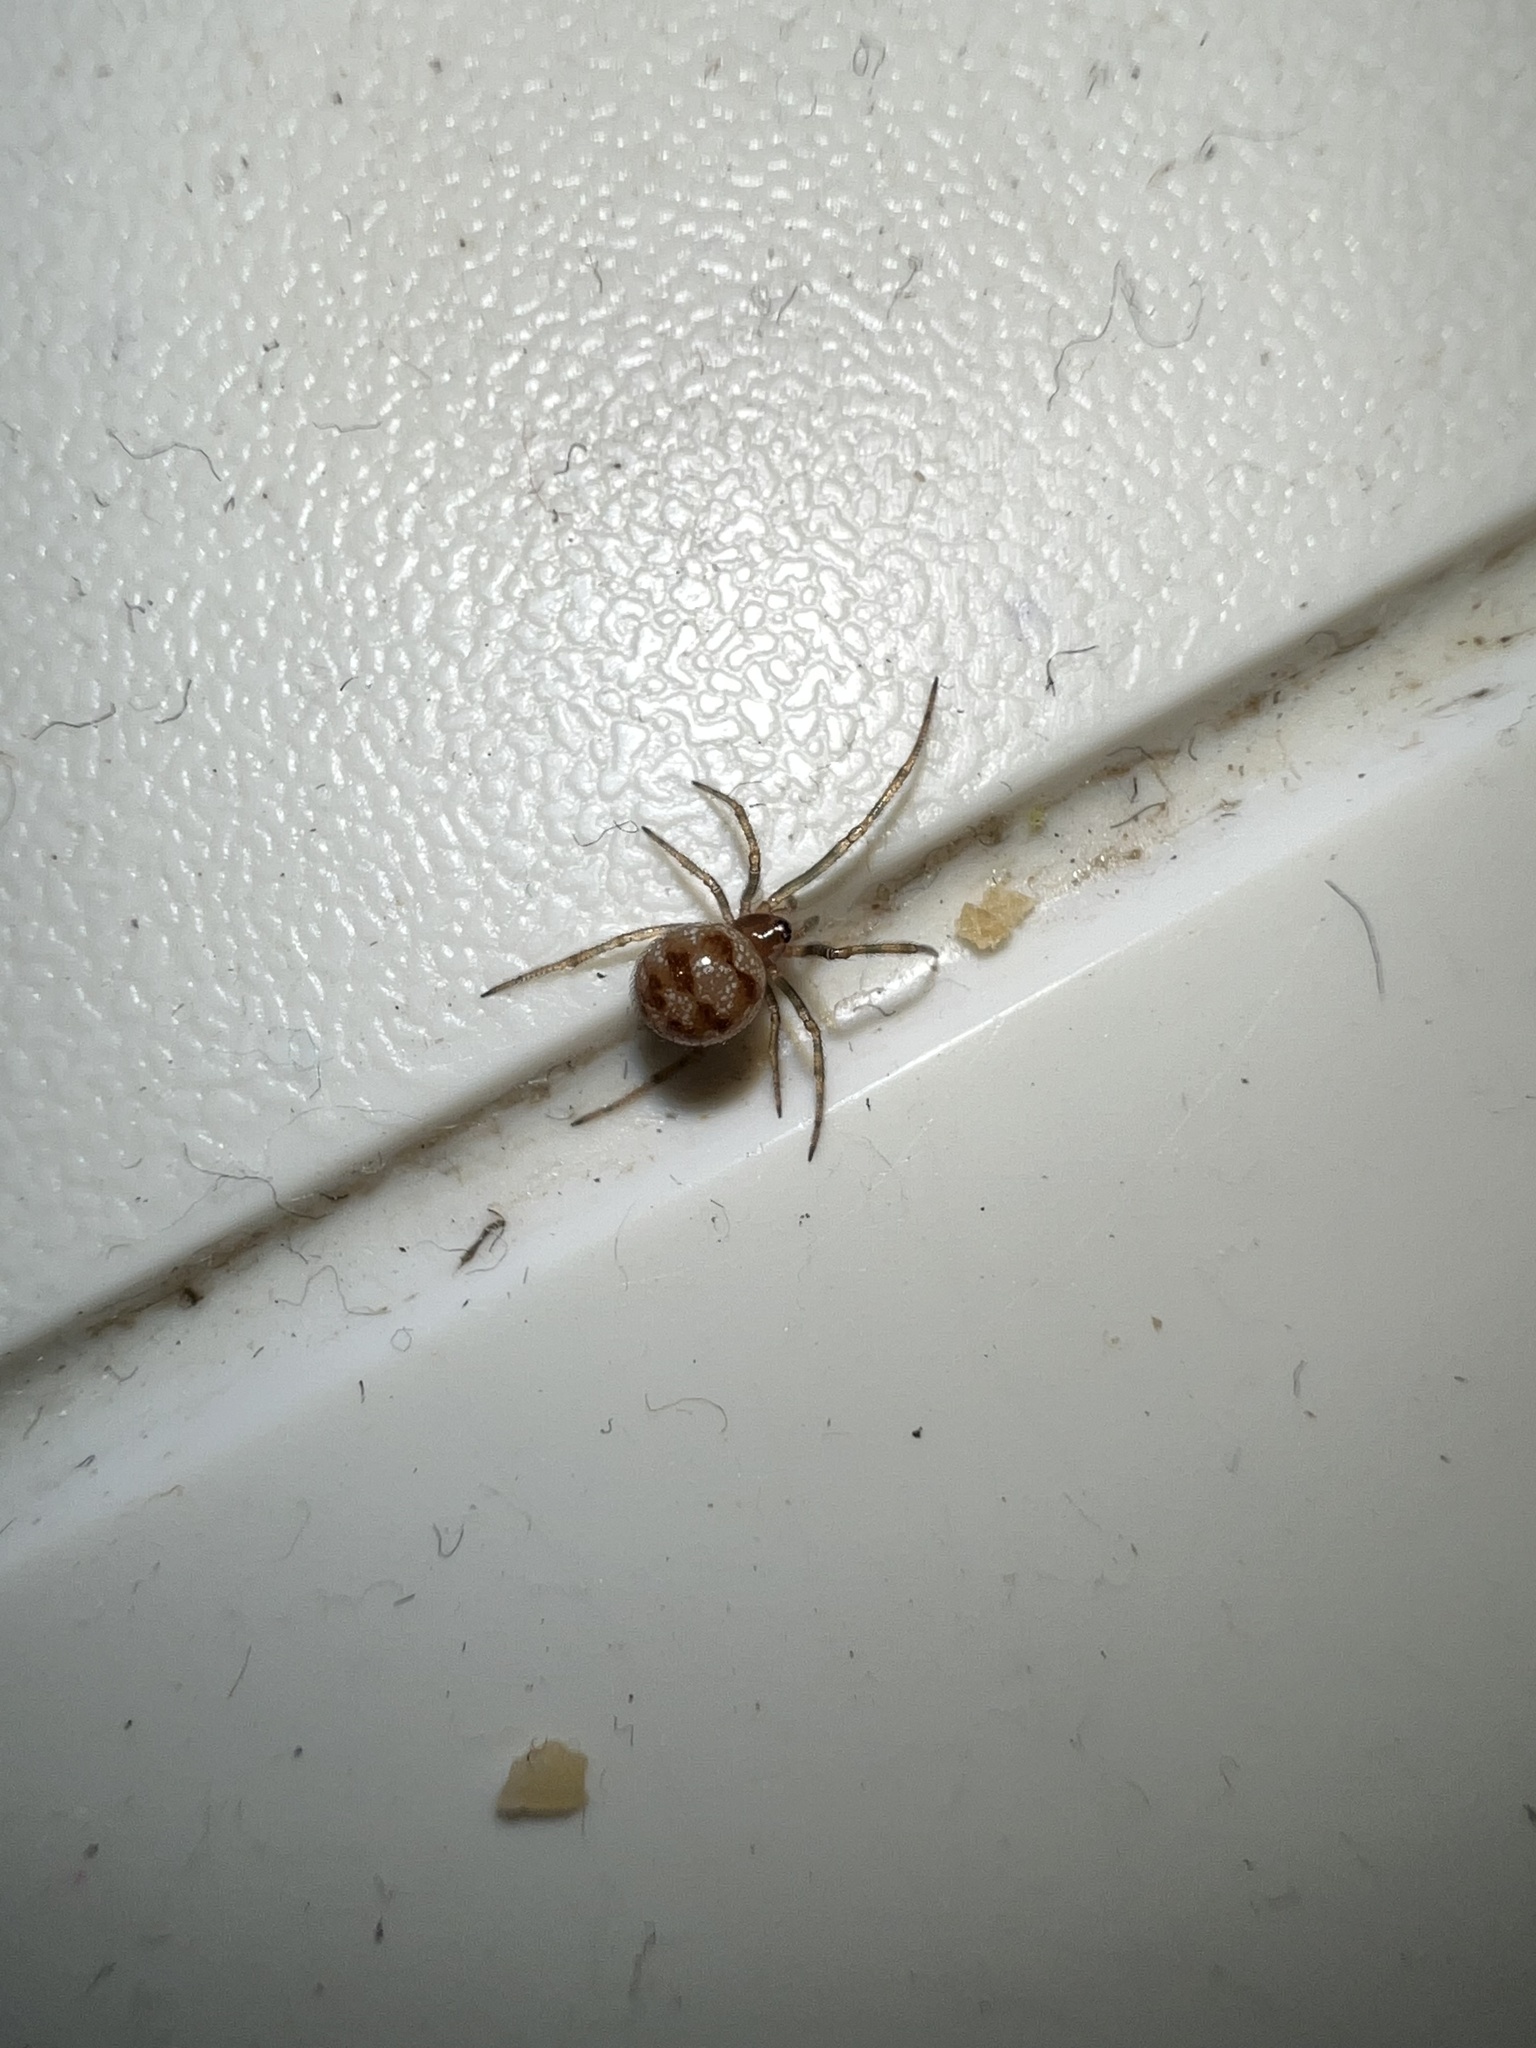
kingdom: Animalia
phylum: Arthropoda
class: Arachnida
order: Araneae
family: Theridiidae
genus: Steatoda
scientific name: Steatoda triangulosa
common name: Triangulate bud spider
